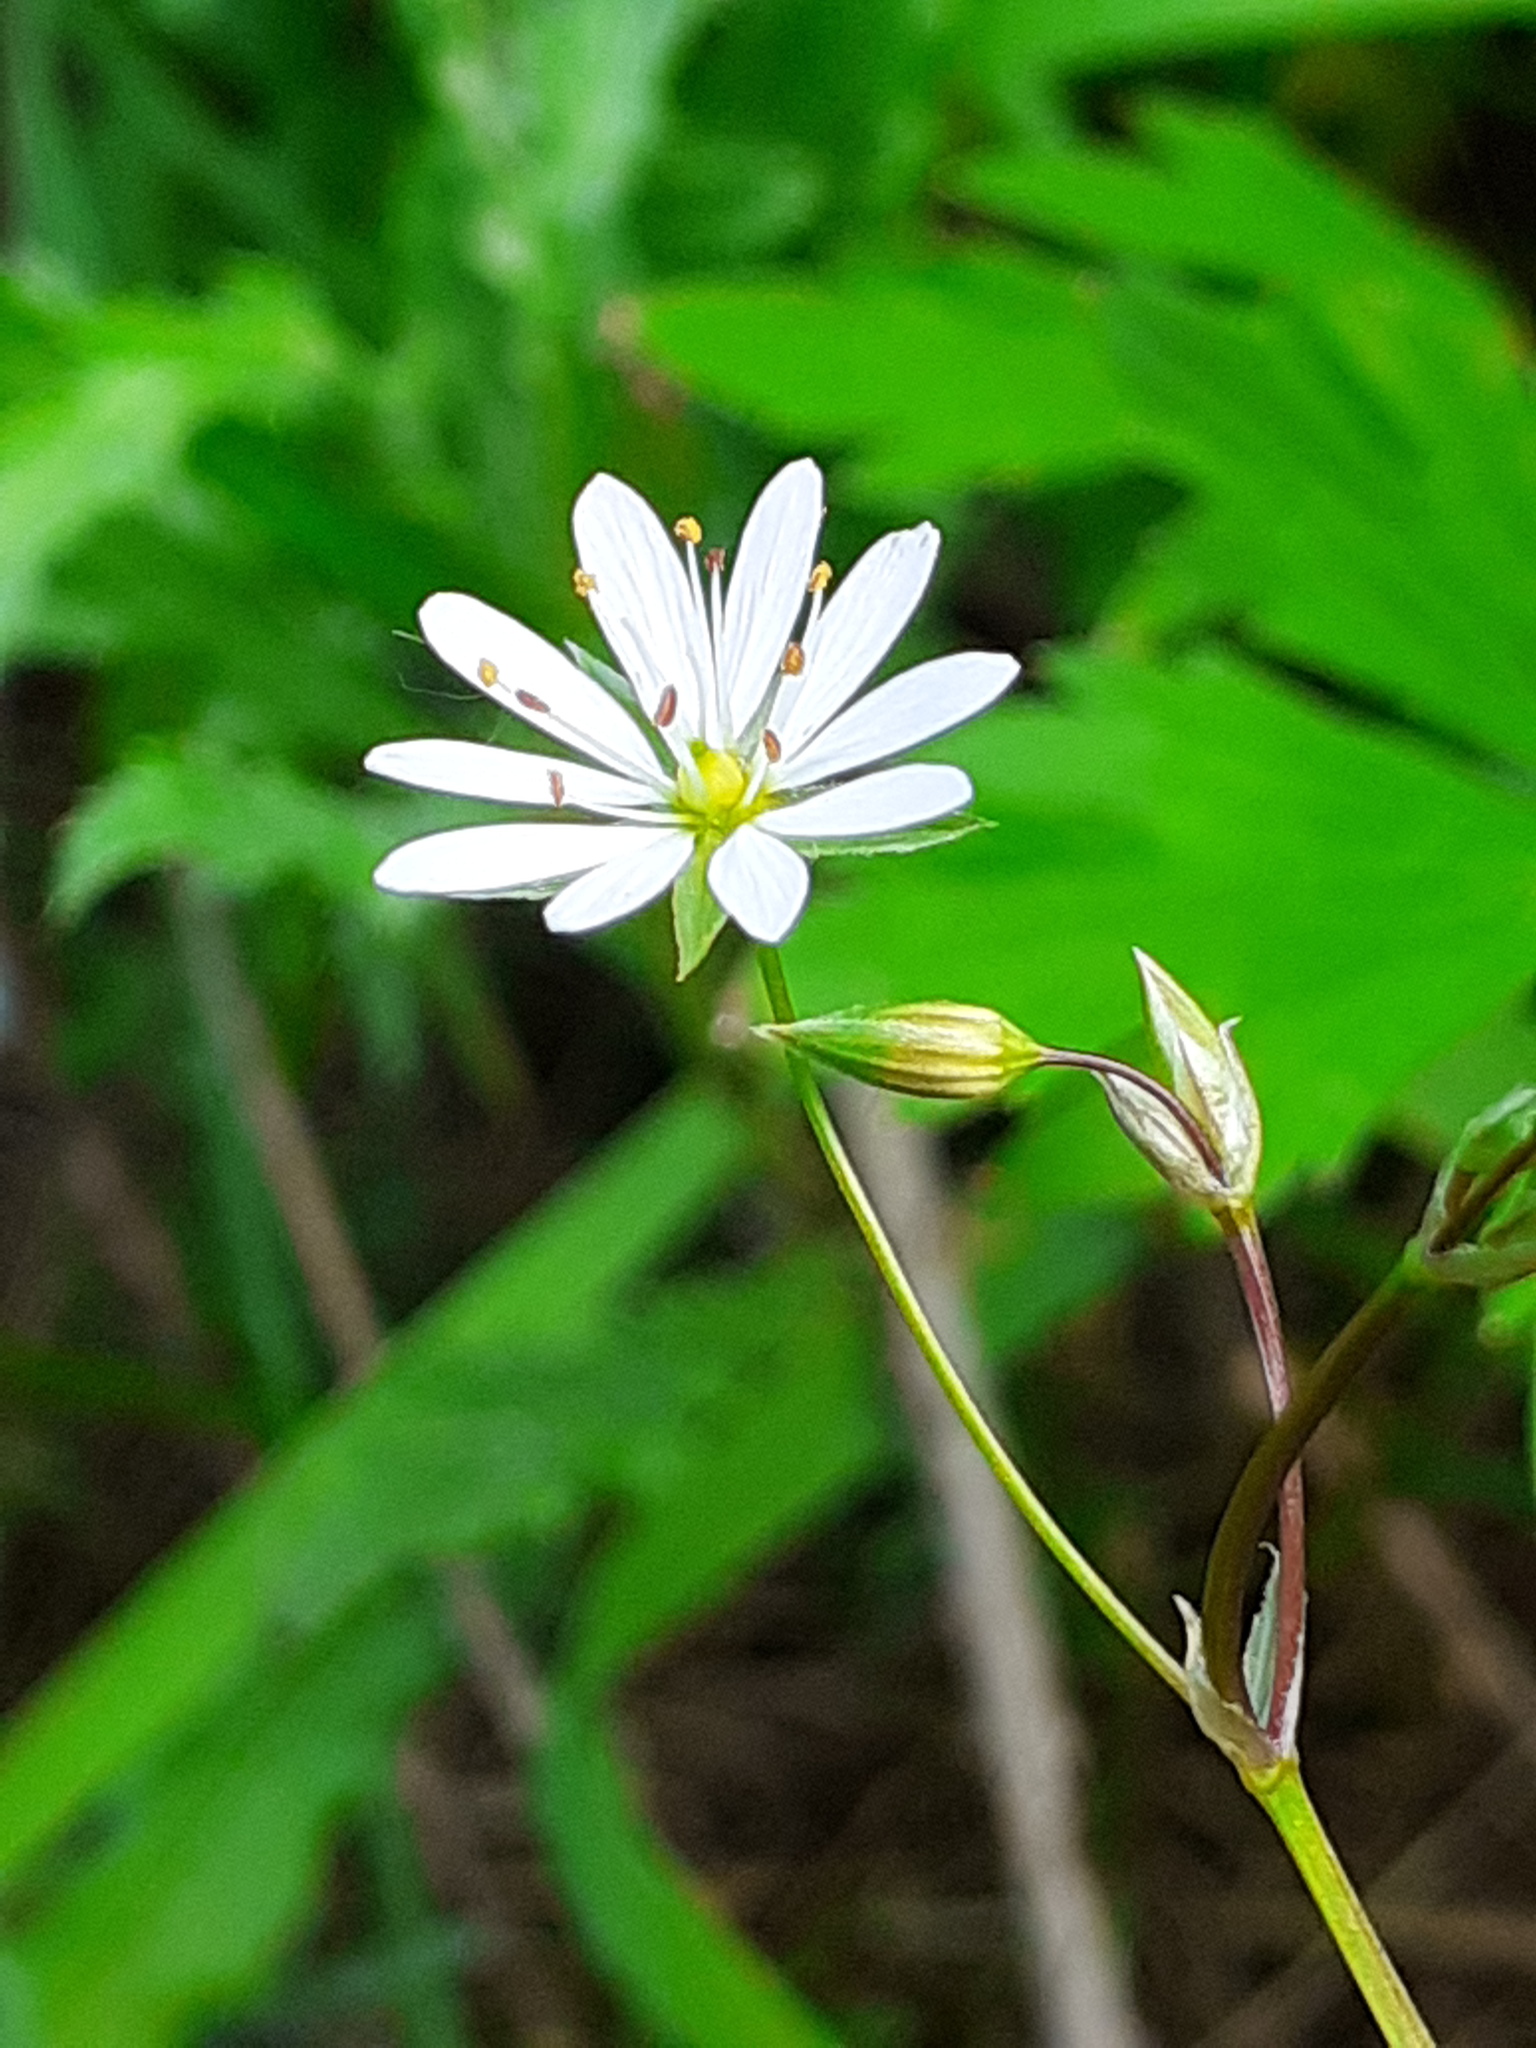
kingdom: Plantae
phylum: Tracheophyta
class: Magnoliopsida
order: Caryophyllales
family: Caryophyllaceae
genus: Stellaria
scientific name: Stellaria graminea
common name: Grass-like starwort
